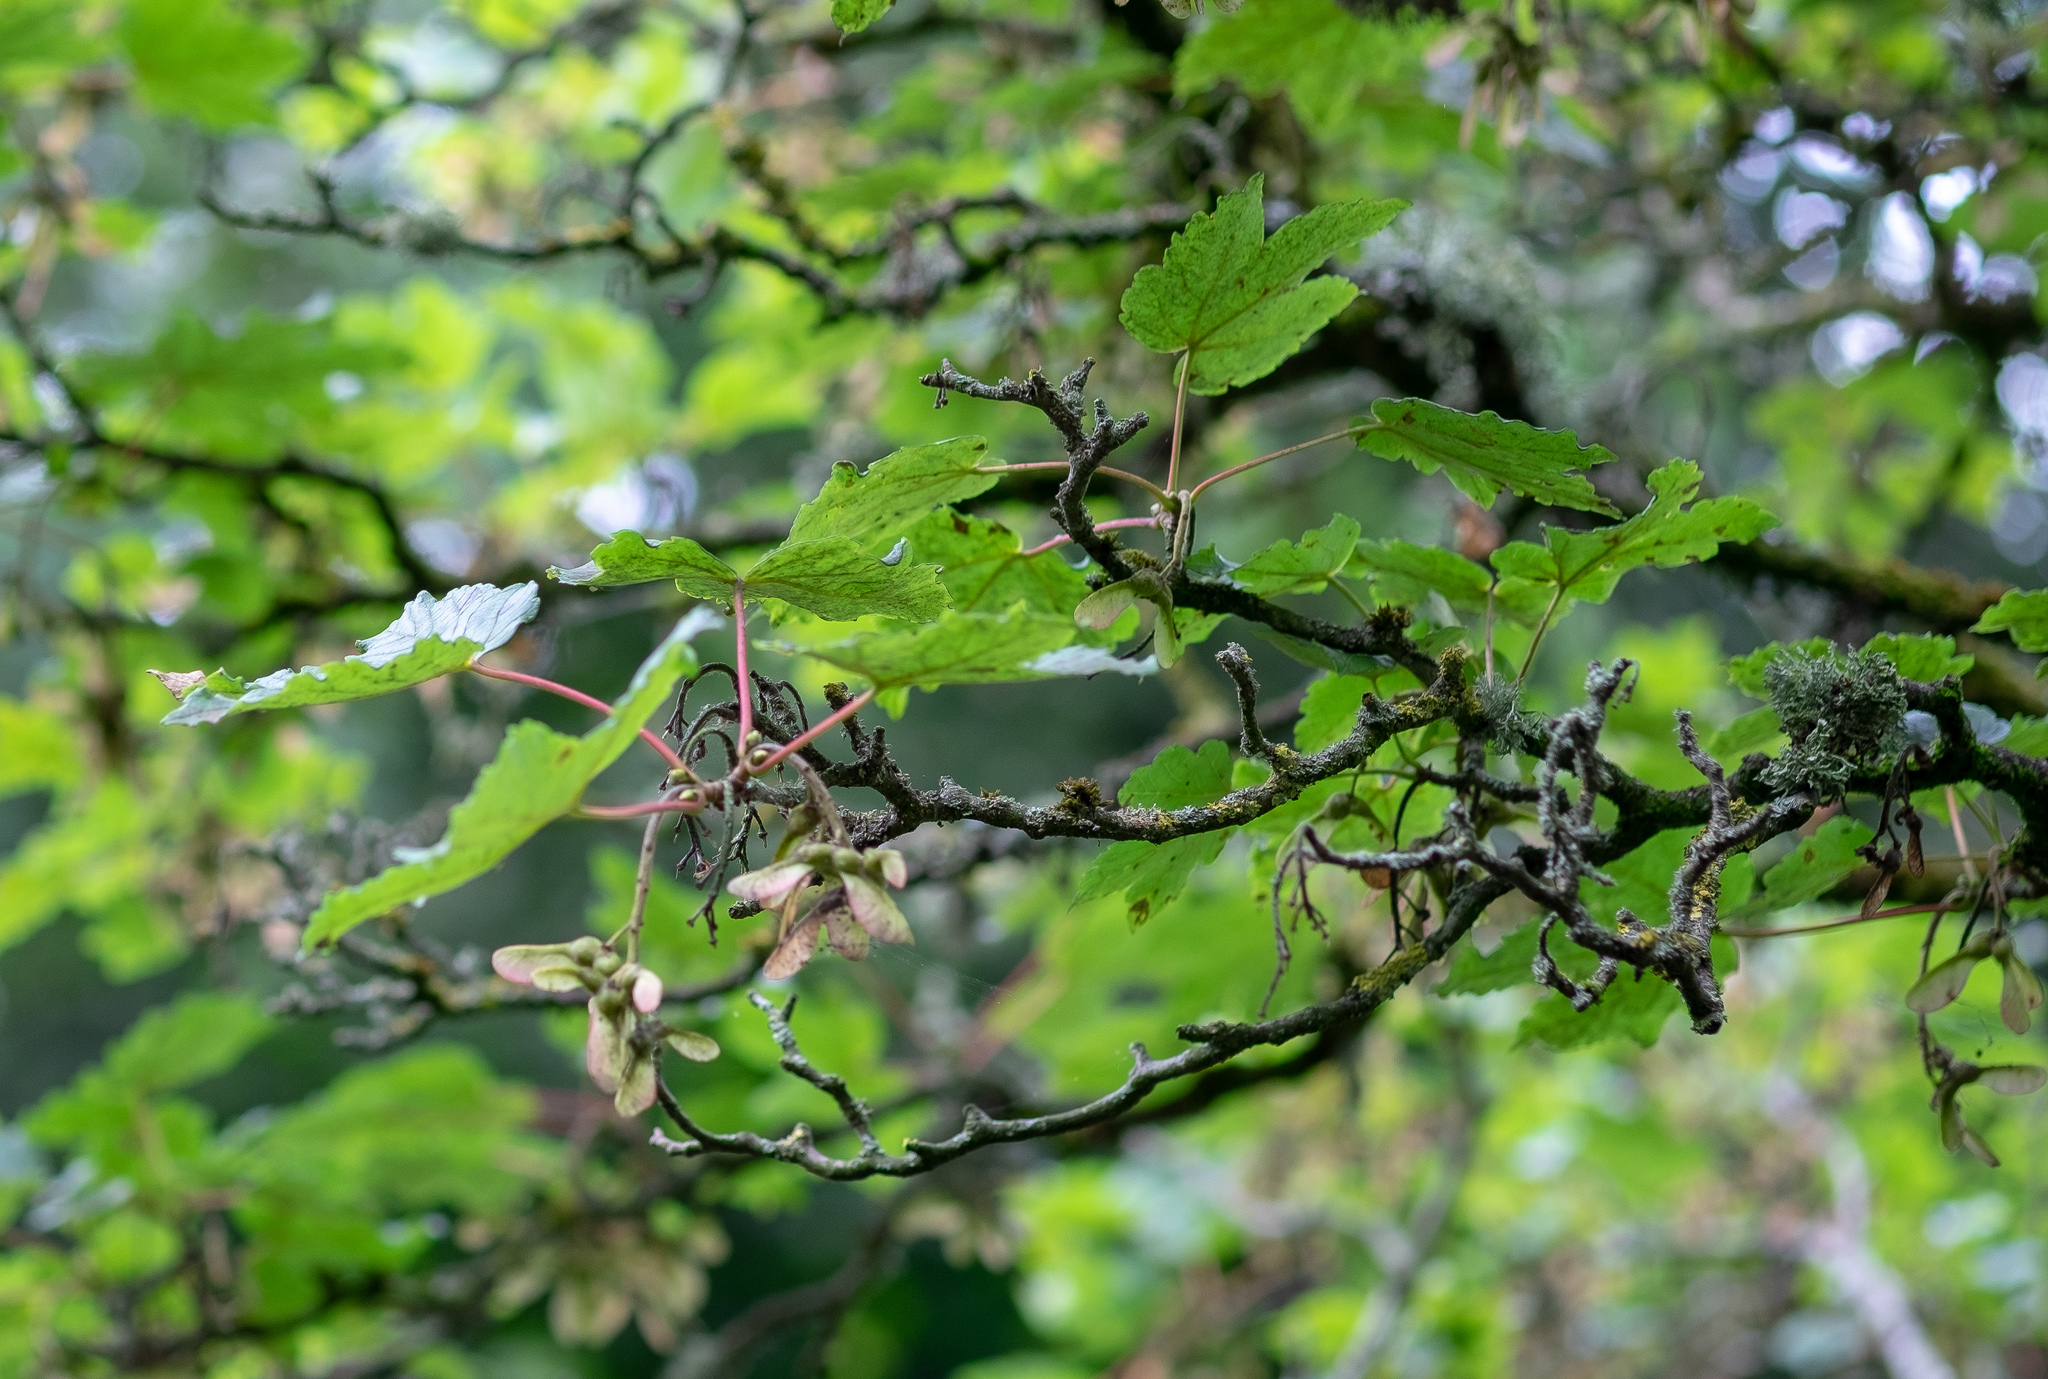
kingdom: Plantae
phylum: Tracheophyta
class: Magnoliopsida
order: Sapindales
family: Sapindaceae
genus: Acer
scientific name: Acer pseudoplatanus
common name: Sycamore
